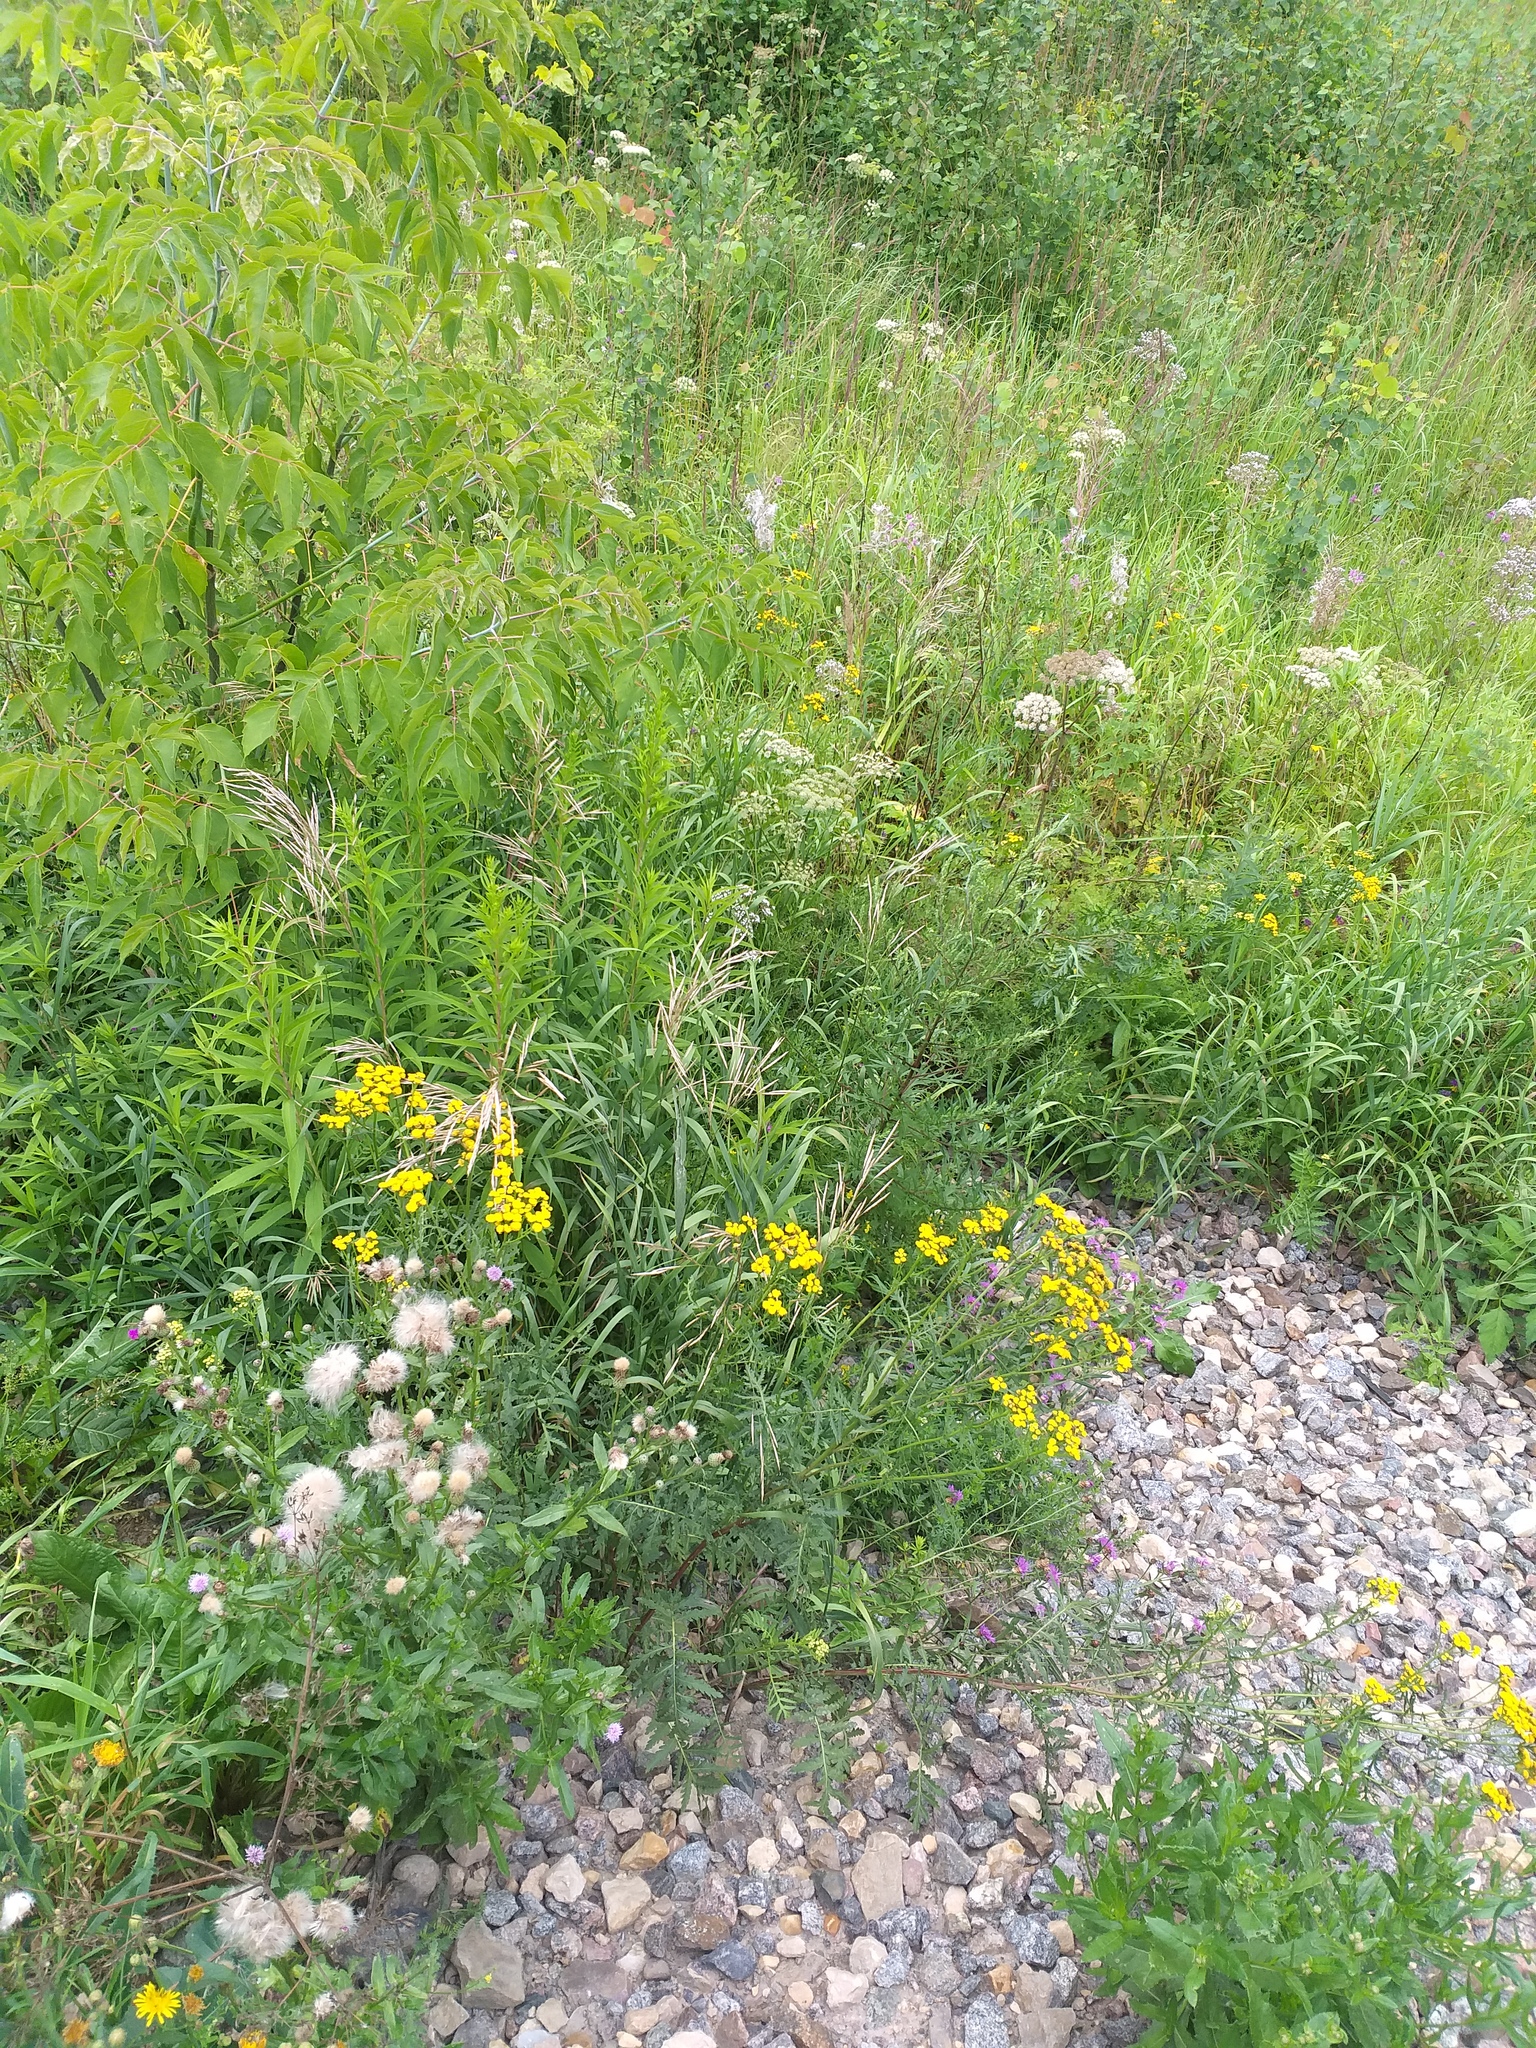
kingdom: Plantae
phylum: Tracheophyta
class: Magnoliopsida
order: Asterales
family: Asteraceae
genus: Tanacetum
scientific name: Tanacetum vulgare
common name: Common tansy
